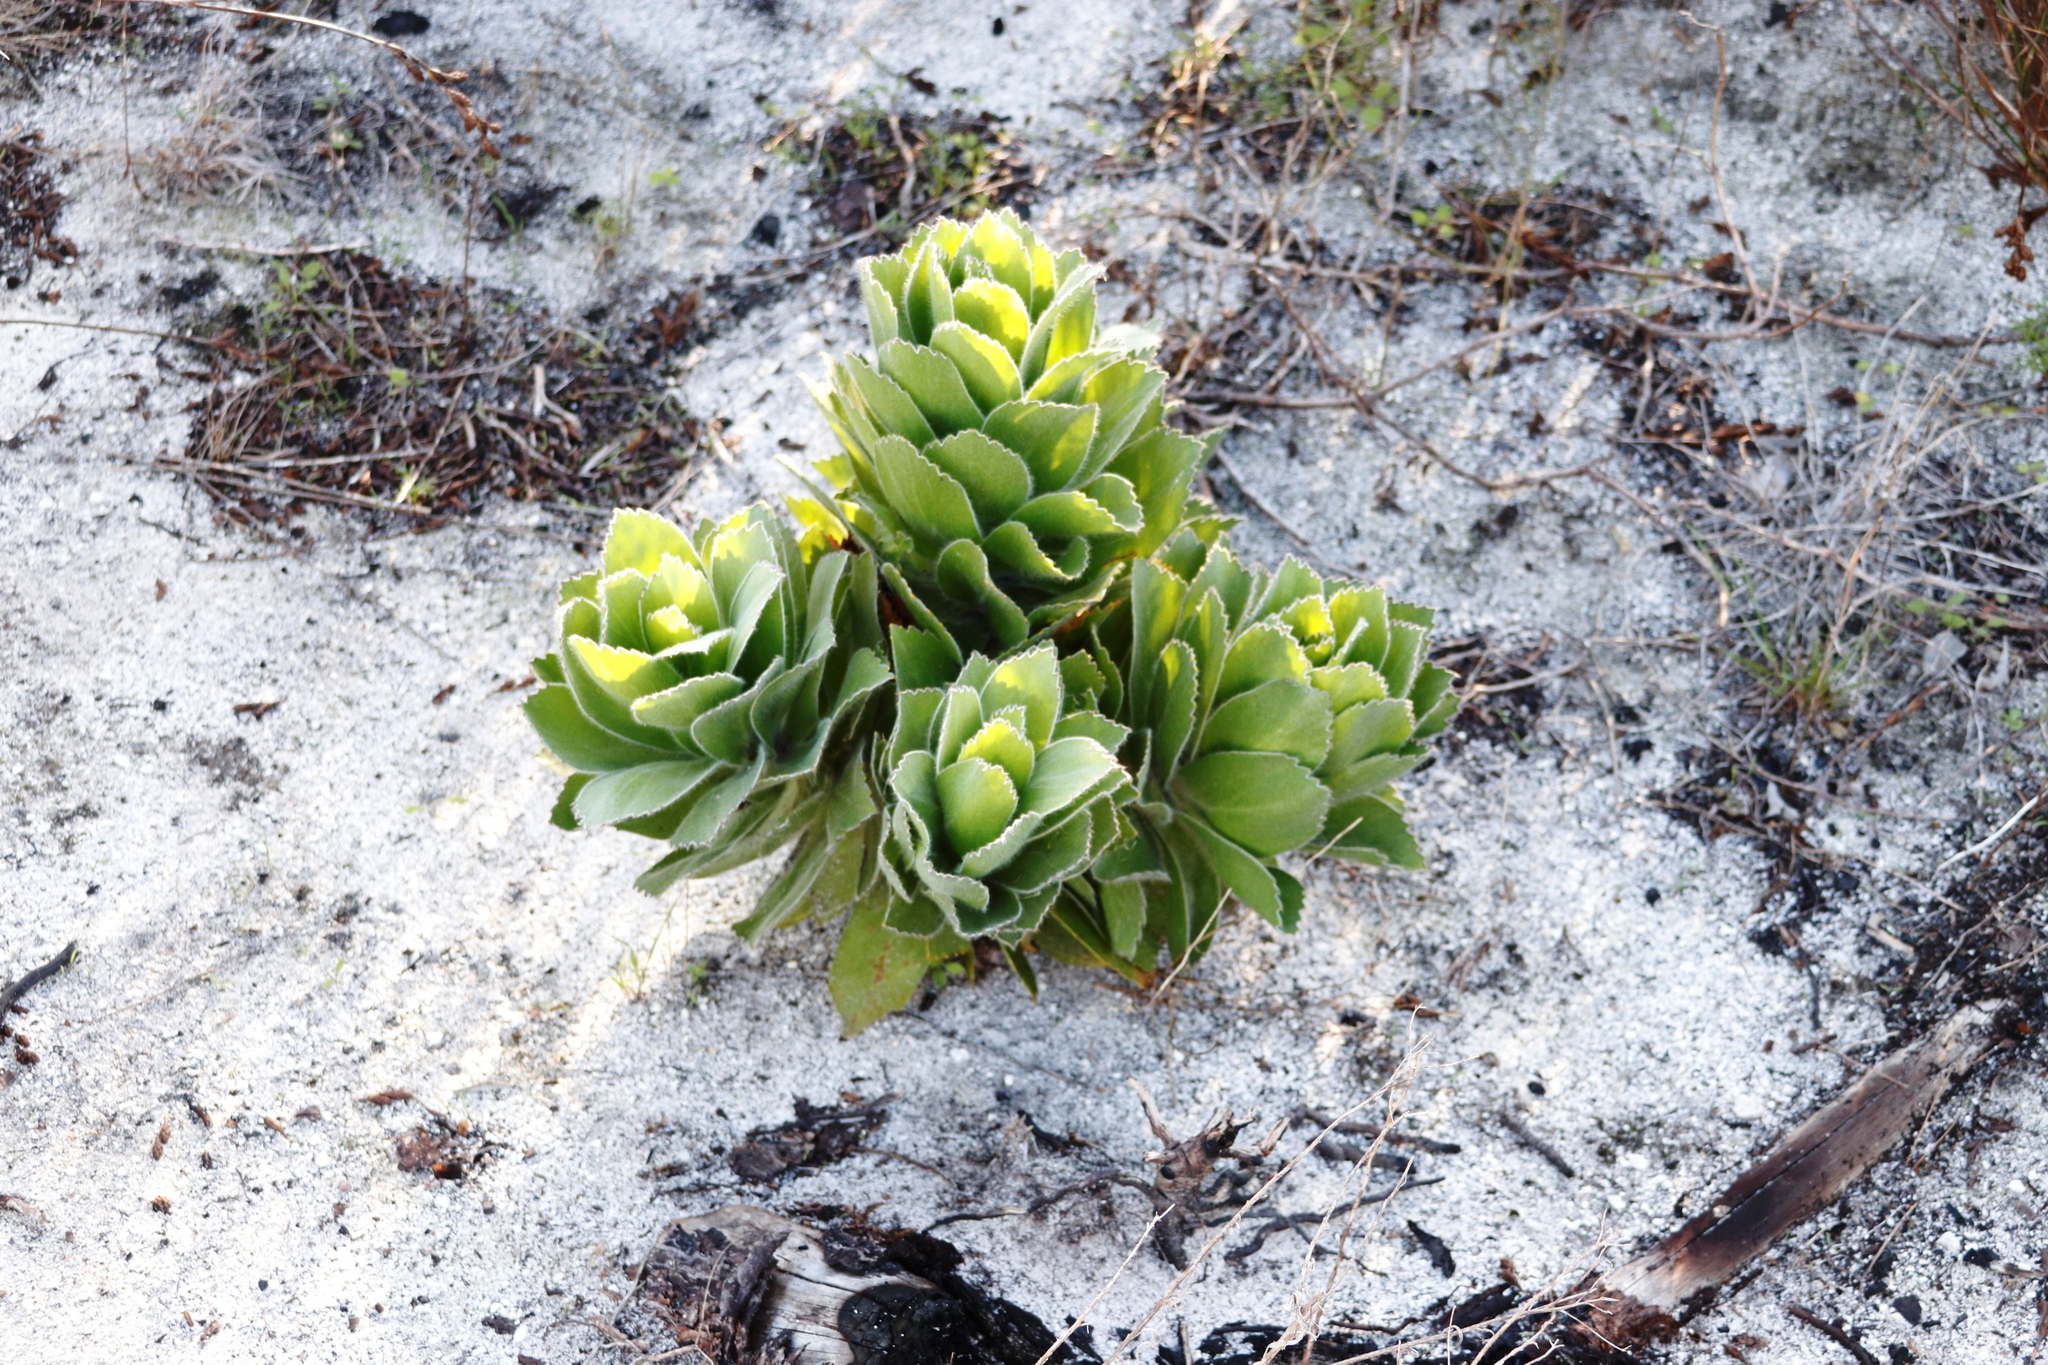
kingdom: Plantae
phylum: Tracheophyta
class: Magnoliopsida
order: Proteales
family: Proteaceae
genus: Leucospermum
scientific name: Leucospermum conocarpodendron
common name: Tree pincushion
